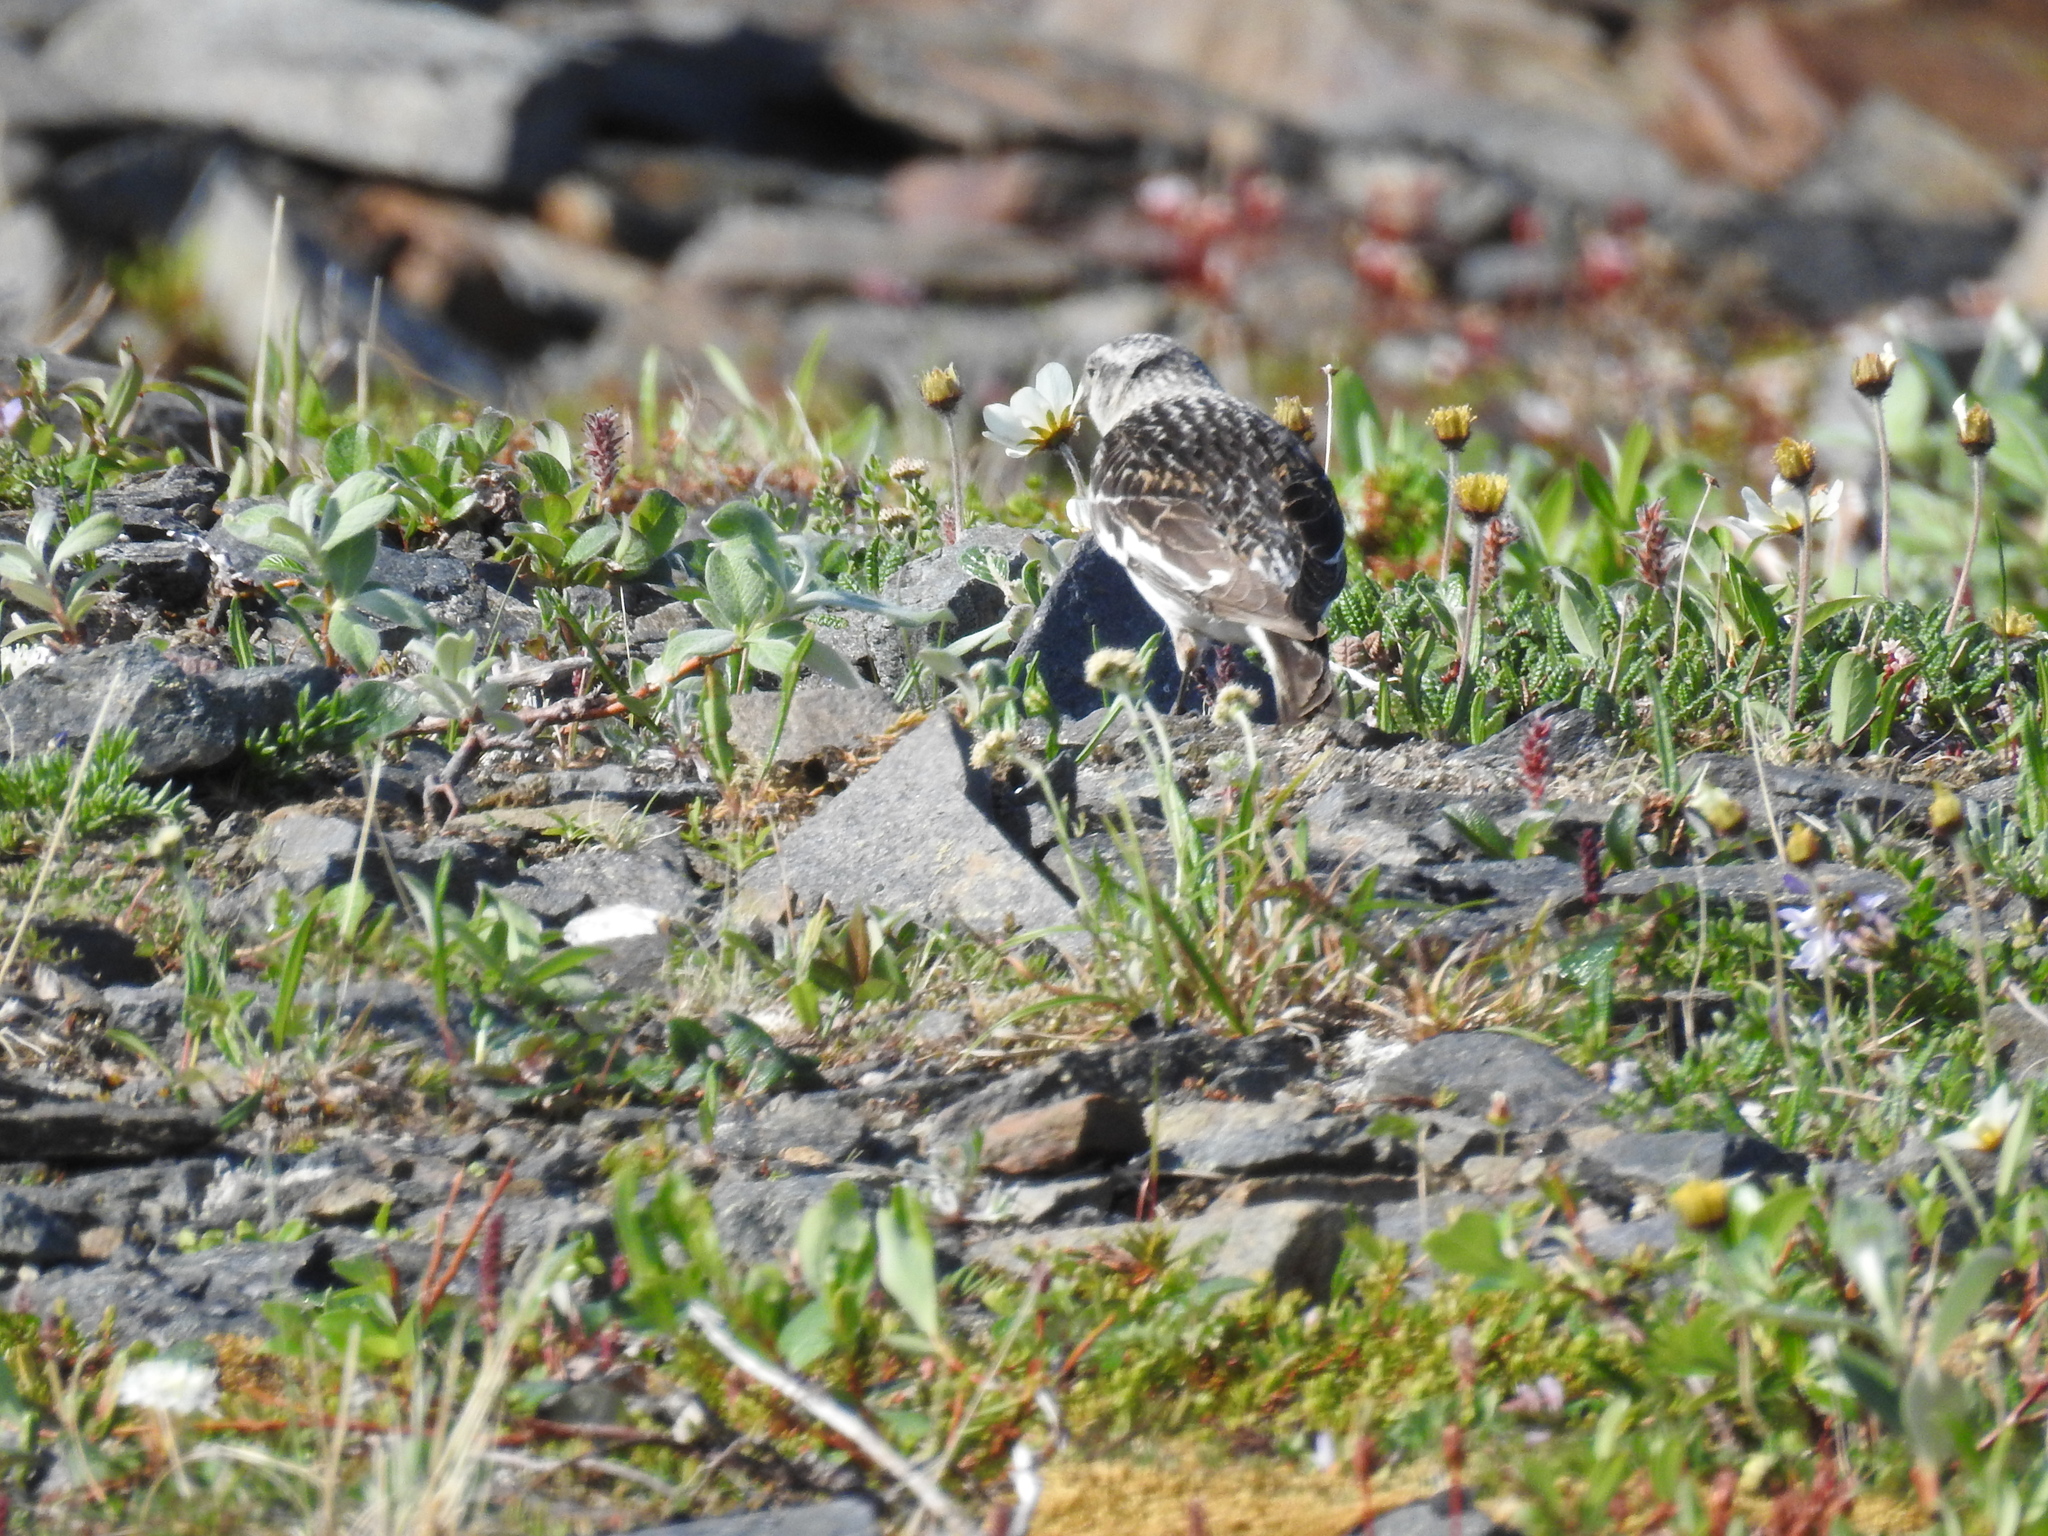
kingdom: Animalia
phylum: Chordata
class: Aves
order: Passeriformes
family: Calcariidae
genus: Plectrophenax
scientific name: Plectrophenax nivalis
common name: Snow bunting
